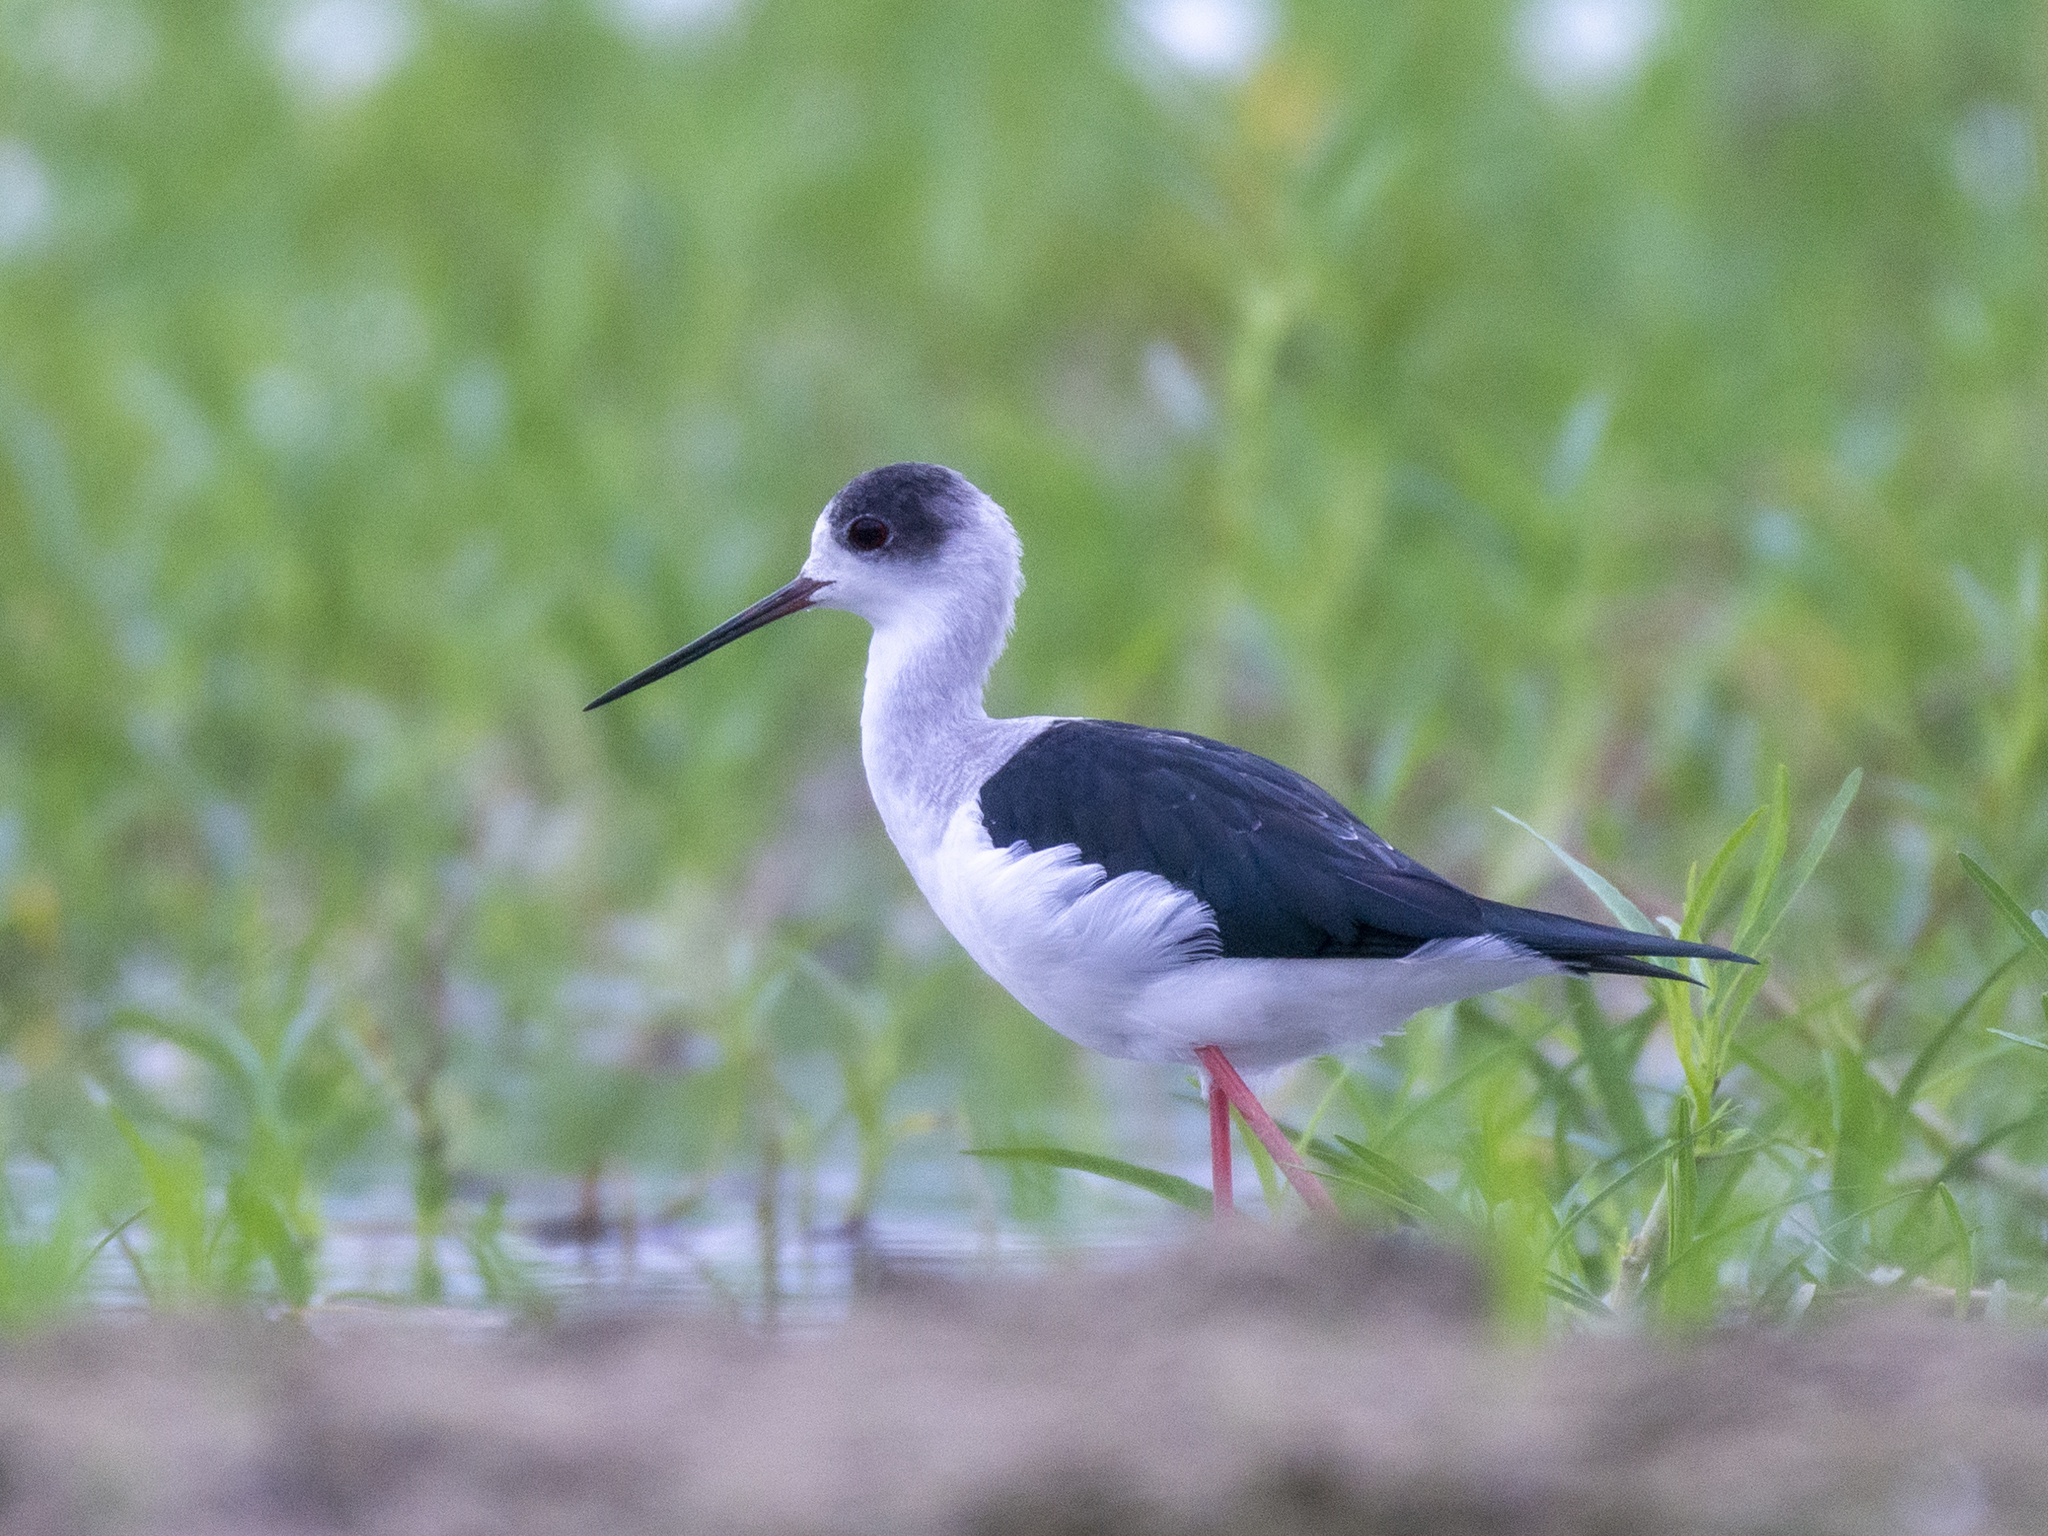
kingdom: Animalia
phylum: Chordata
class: Aves
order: Charadriiformes
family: Recurvirostridae
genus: Himantopus
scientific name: Himantopus himantopus
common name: Black-winged stilt
